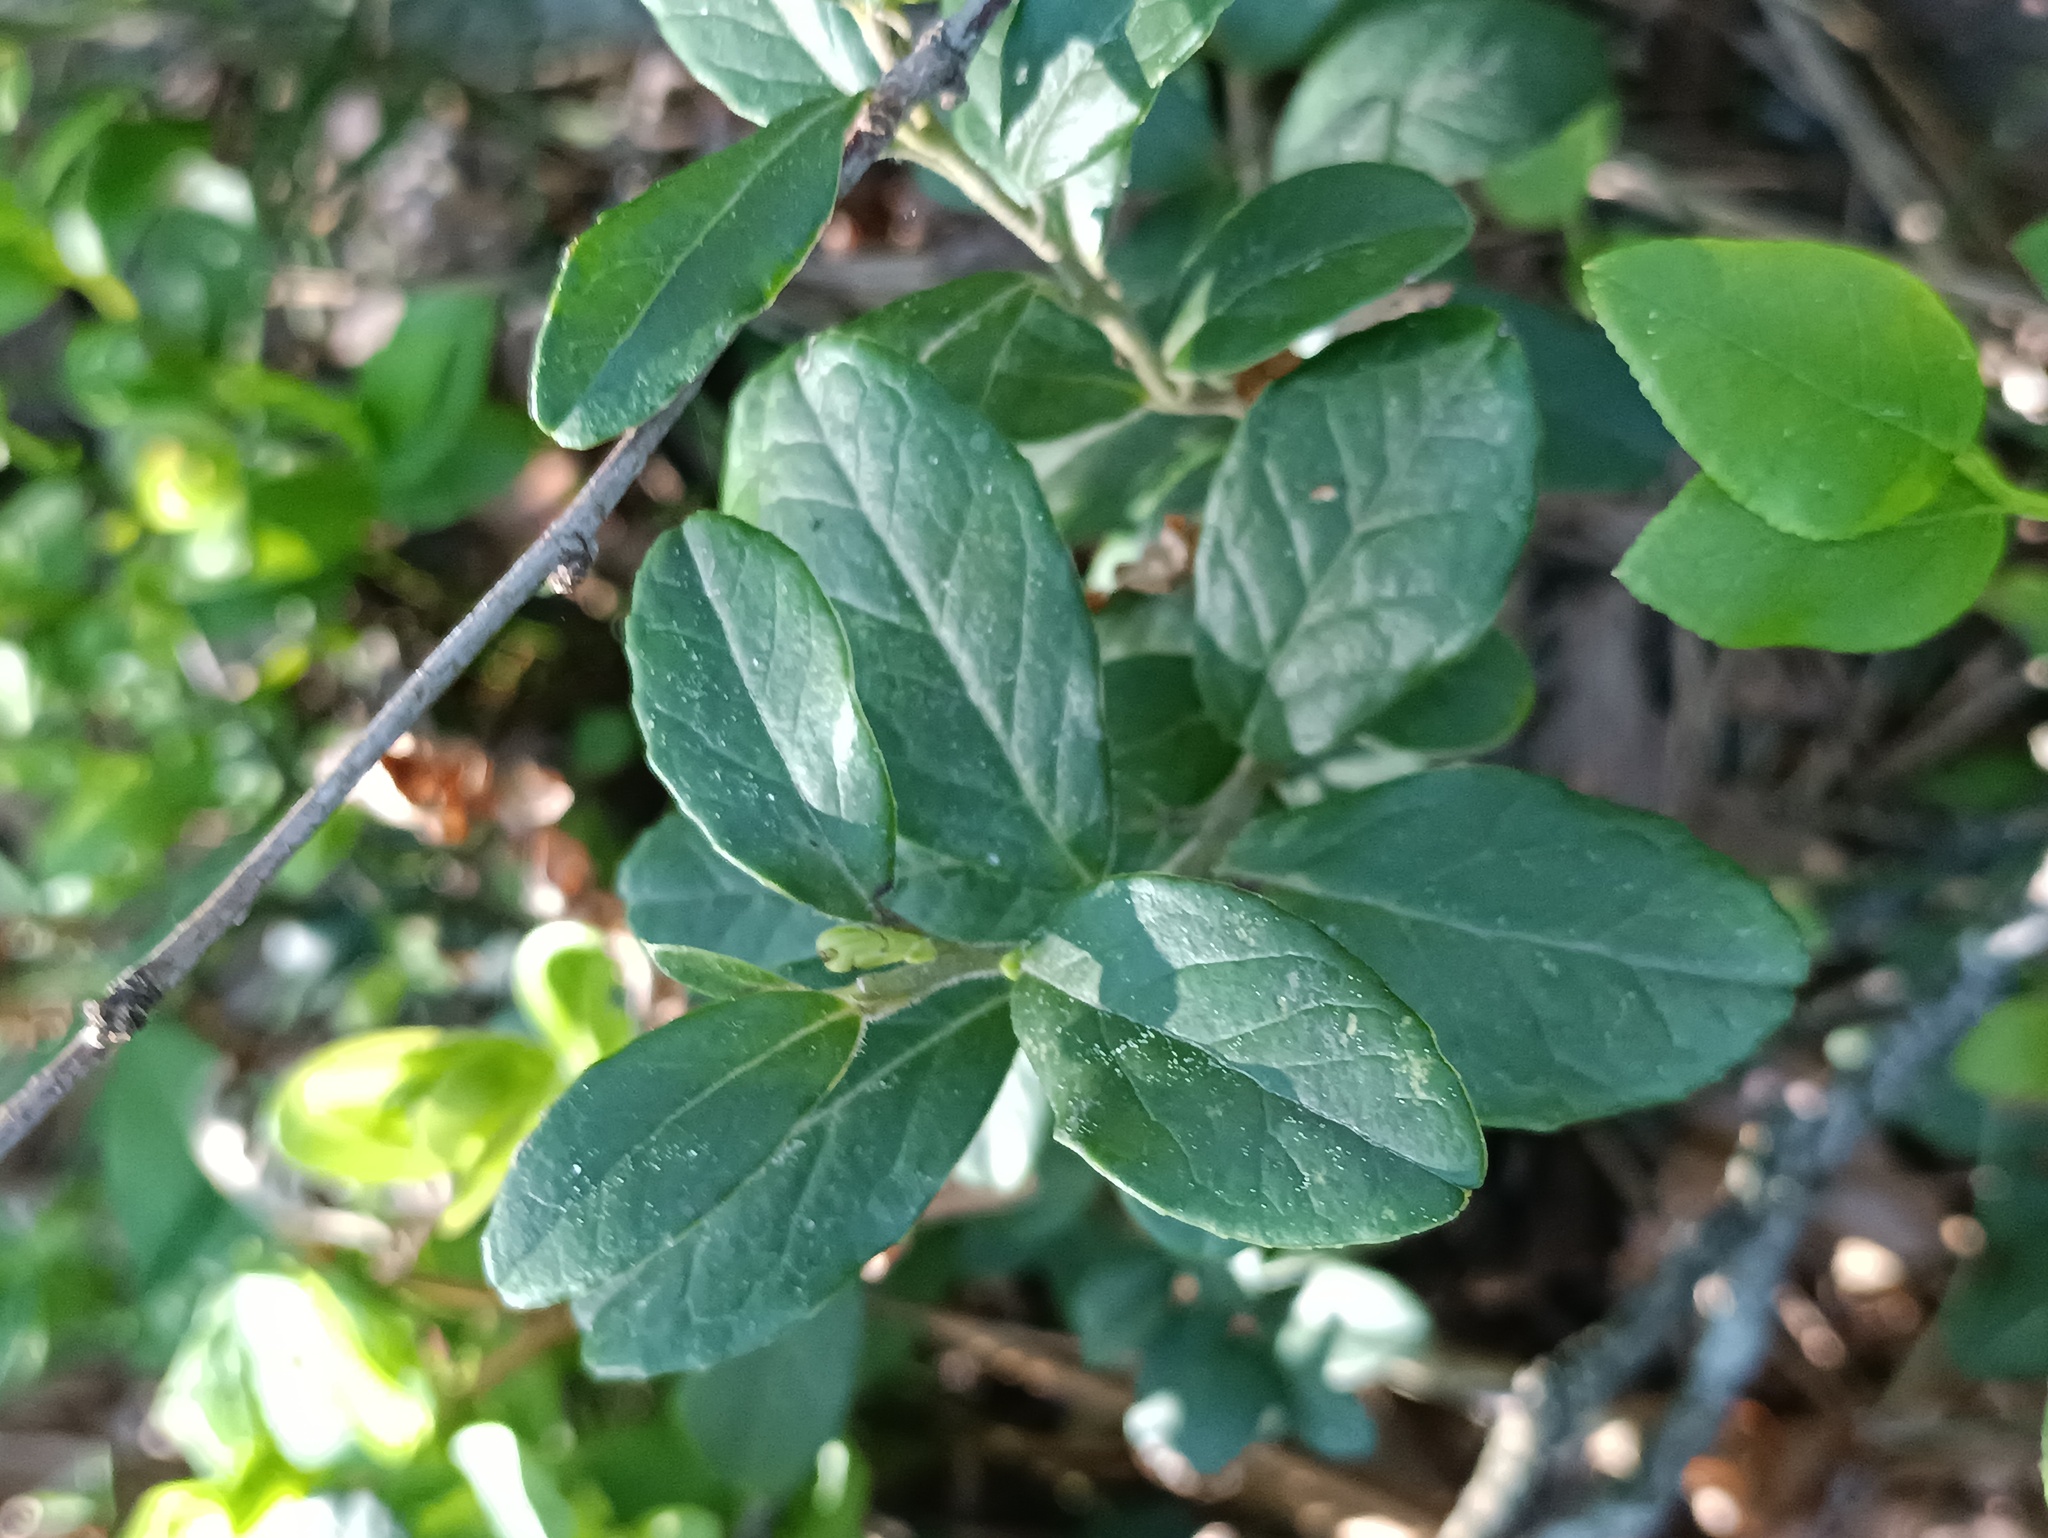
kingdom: Plantae
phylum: Tracheophyta
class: Magnoliopsida
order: Ericales
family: Ericaceae
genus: Vaccinium
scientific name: Vaccinium vitis-idaea
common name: Cowberry
